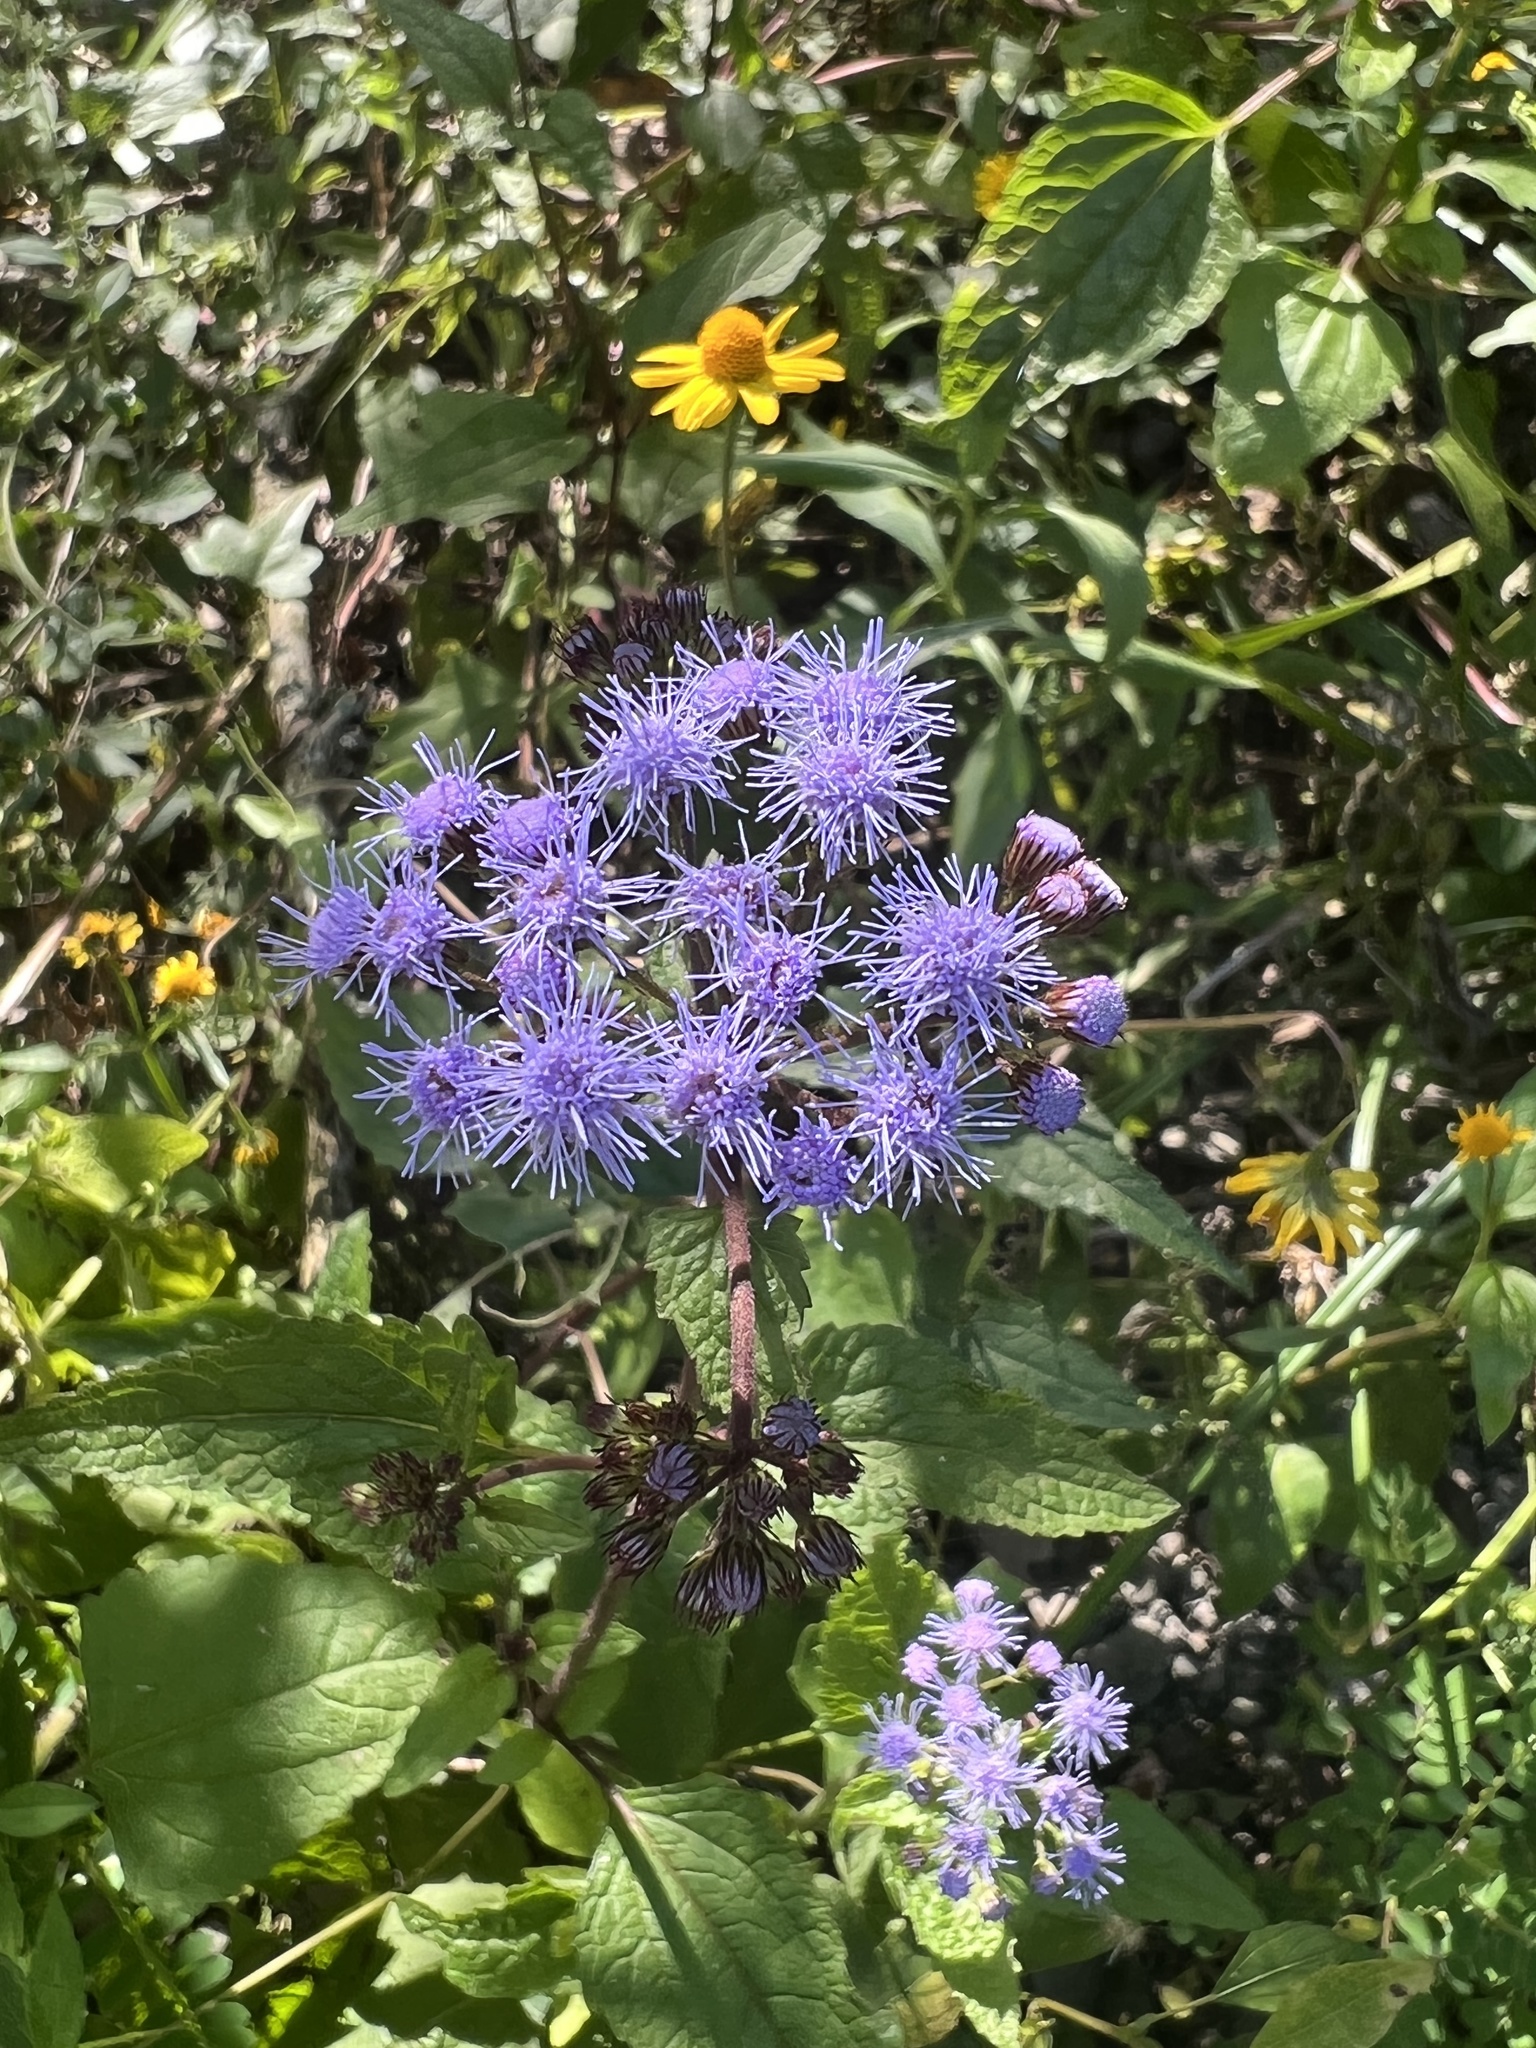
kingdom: Plantae
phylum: Tracheophyta
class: Magnoliopsida
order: Asterales
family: Asteraceae
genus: Conoclinium
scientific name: Conoclinium coelestinum
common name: Blue mistflower
